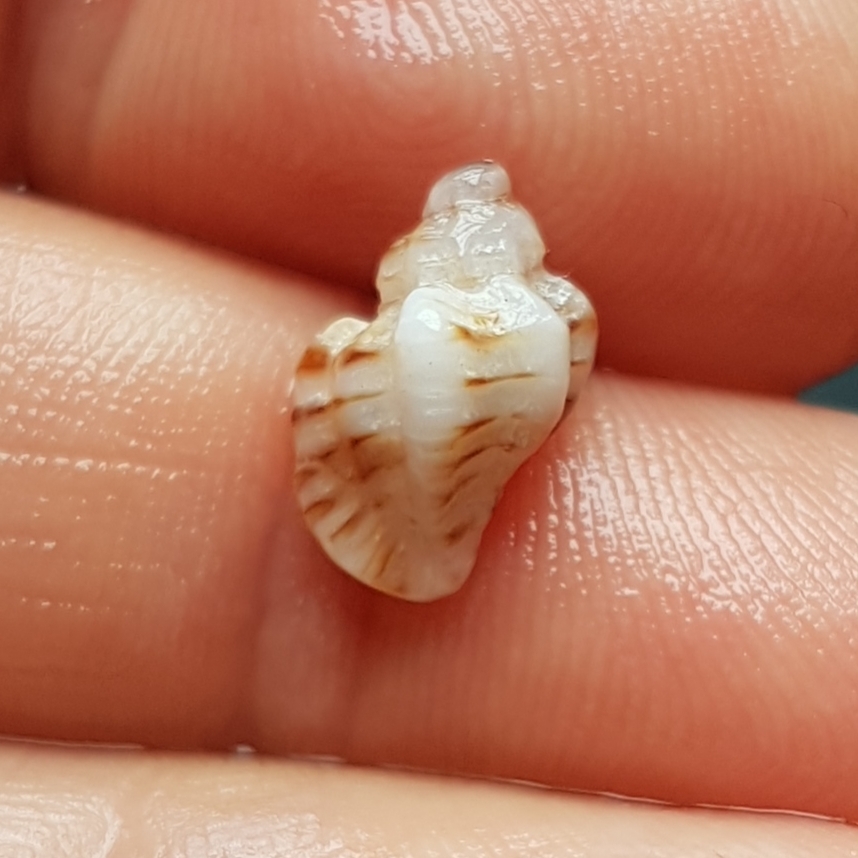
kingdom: Animalia
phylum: Mollusca
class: Gastropoda
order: Neogastropoda
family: Muricidae
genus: Ocenebra
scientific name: Ocenebra erinaceus
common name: European sting winkle
